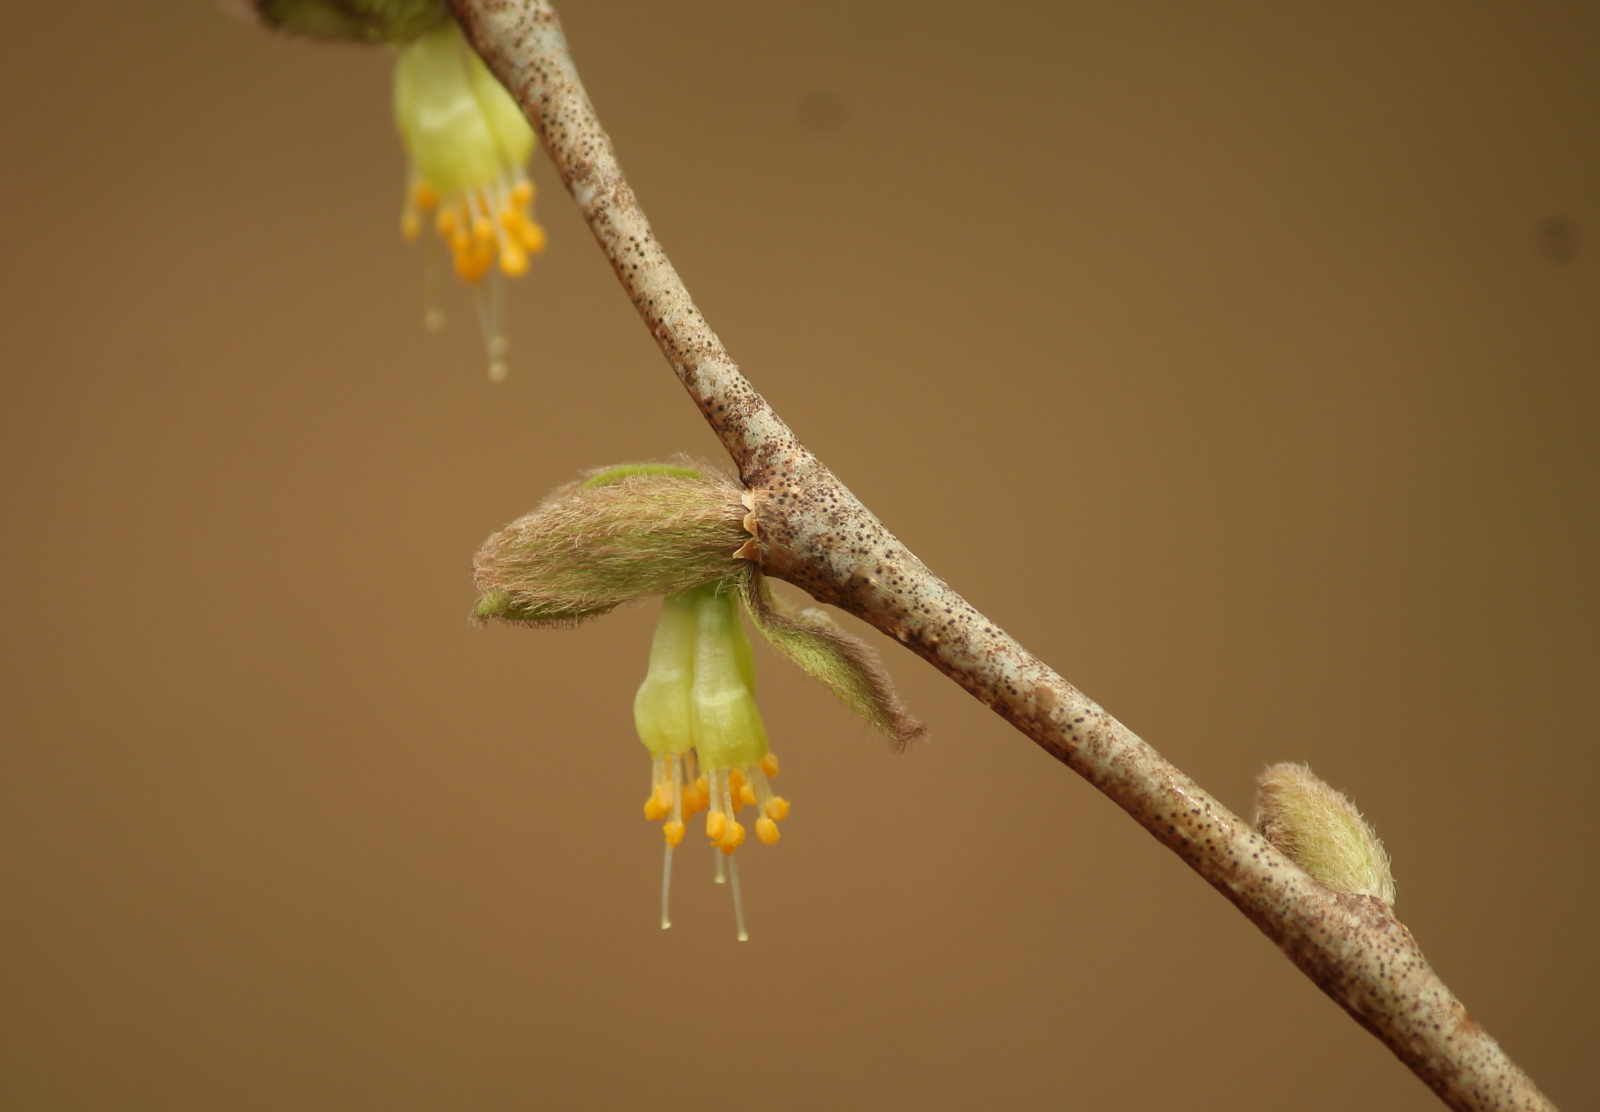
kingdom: Plantae
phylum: Tracheophyta
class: Magnoliopsida
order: Malvales
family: Thymelaeaceae
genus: Dirca
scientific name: Dirca palustris
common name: Leatherwood
